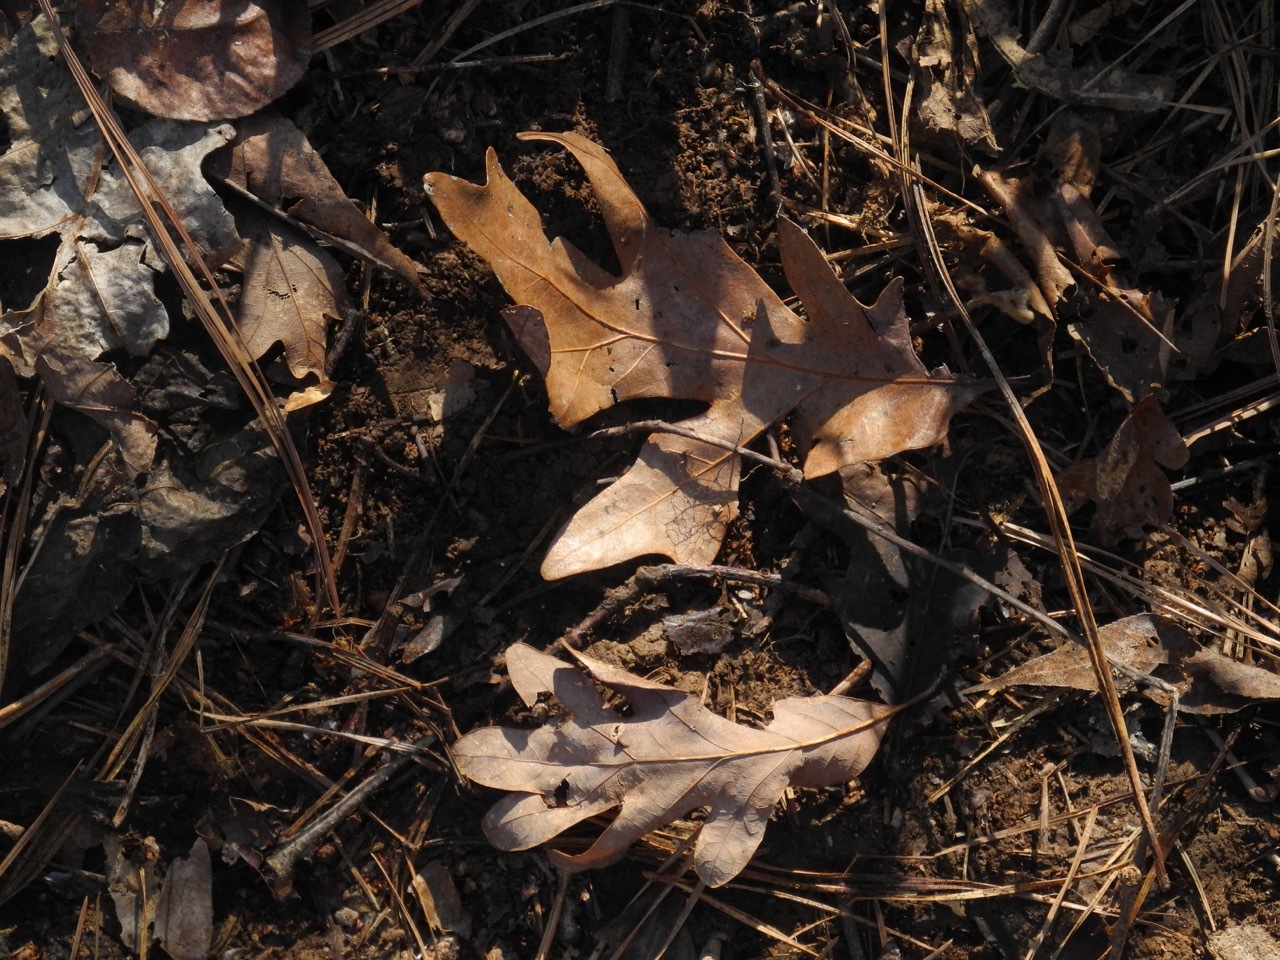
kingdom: Plantae
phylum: Tracheophyta
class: Magnoliopsida
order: Fagales
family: Fagaceae
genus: Quercus
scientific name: Quercus alba
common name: White oak
